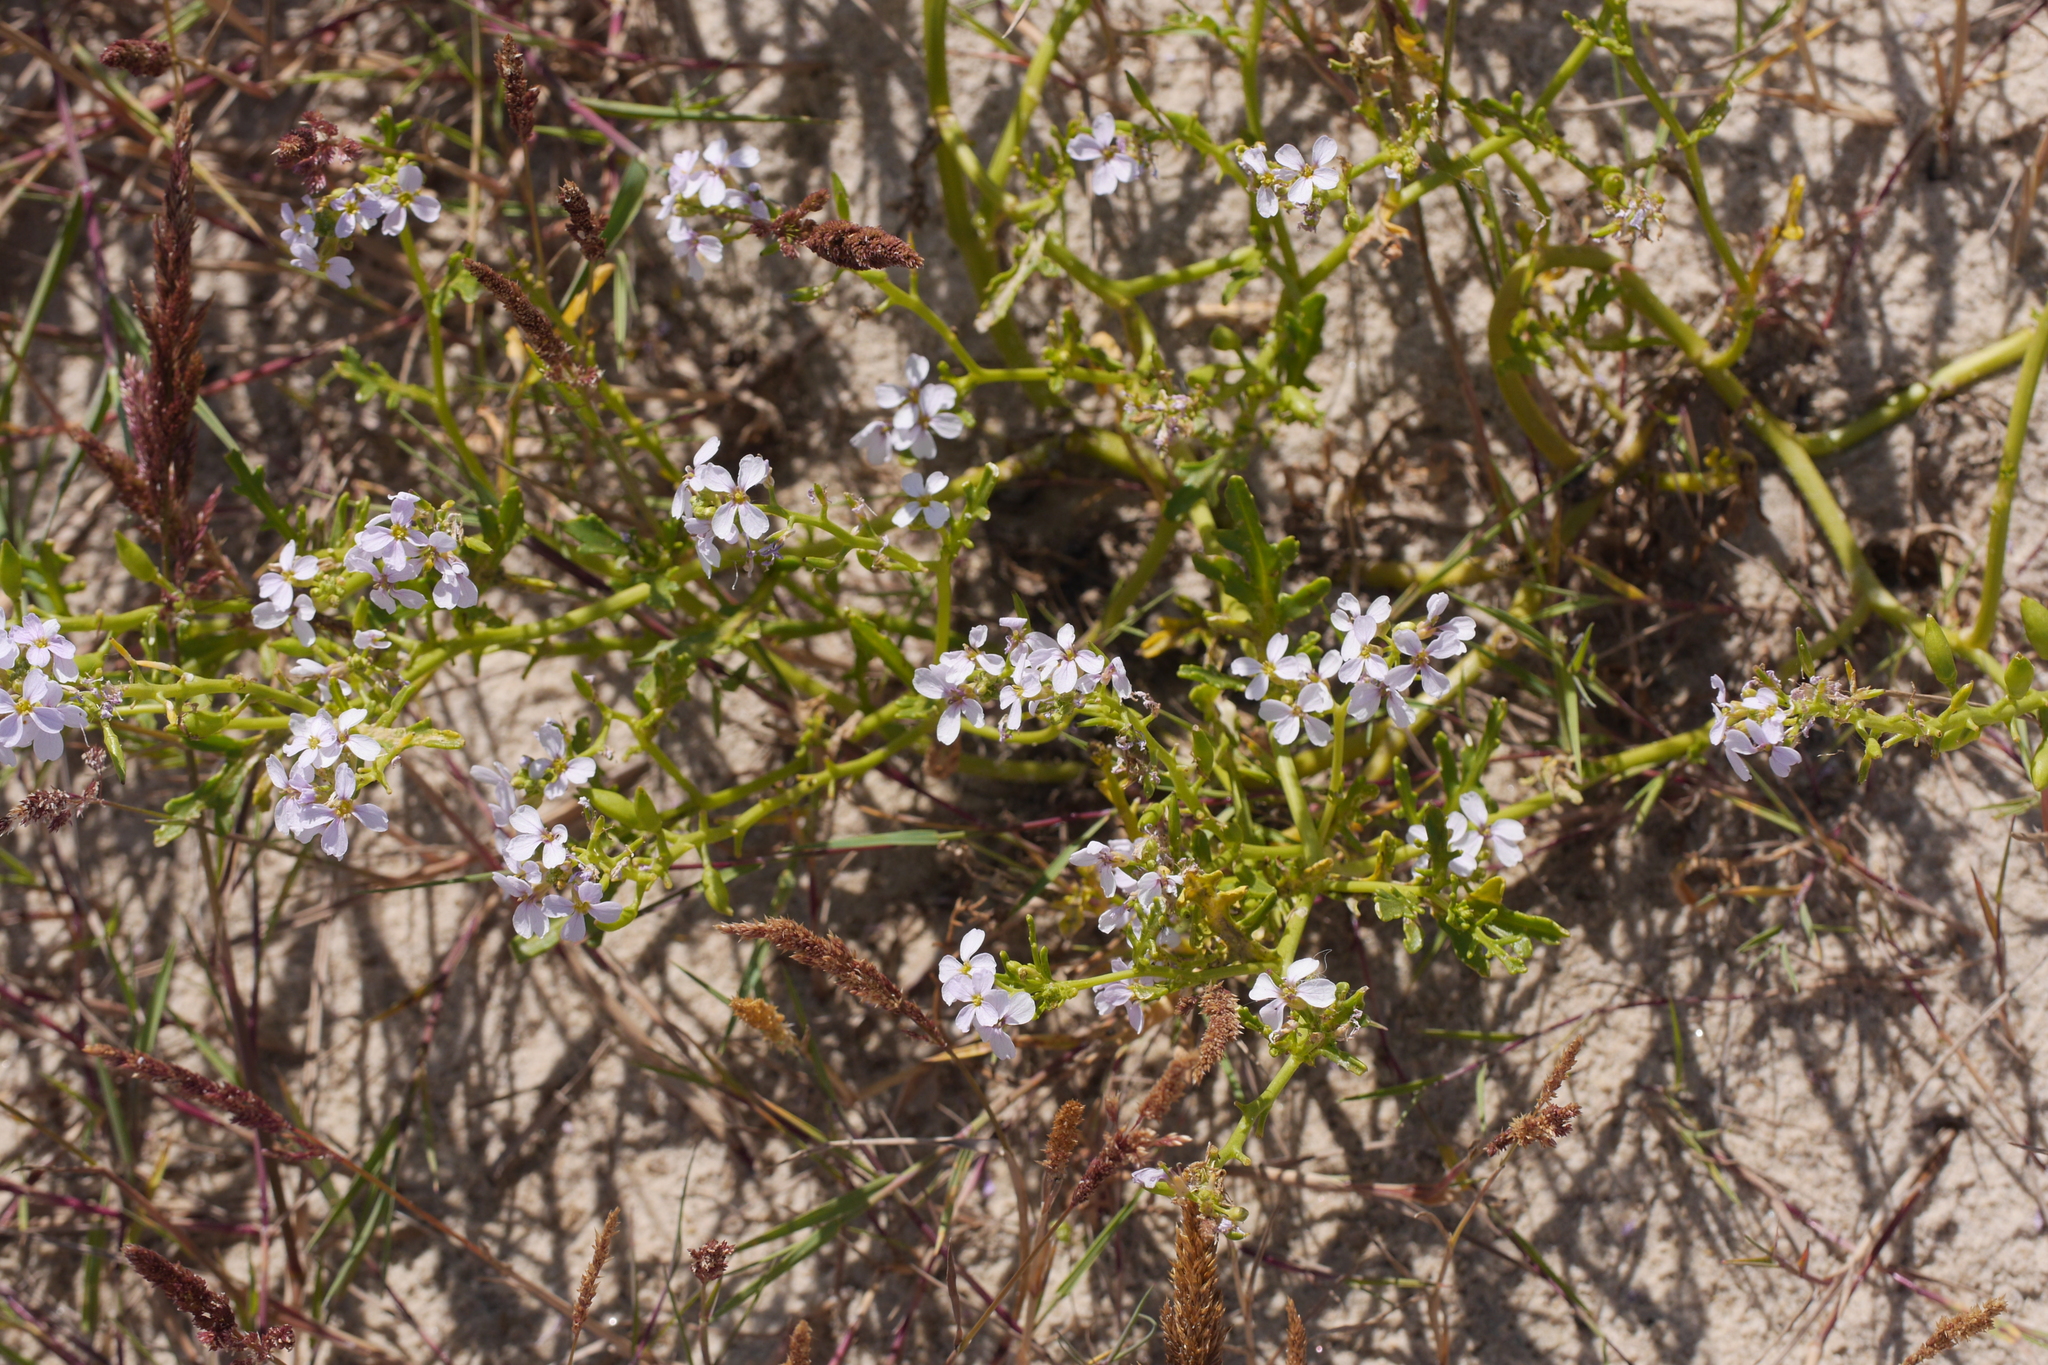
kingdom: Plantae
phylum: Tracheophyta
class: Magnoliopsida
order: Brassicales
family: Brassicaceae
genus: Cakile
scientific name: Cakile maritima
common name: Sea rocket
